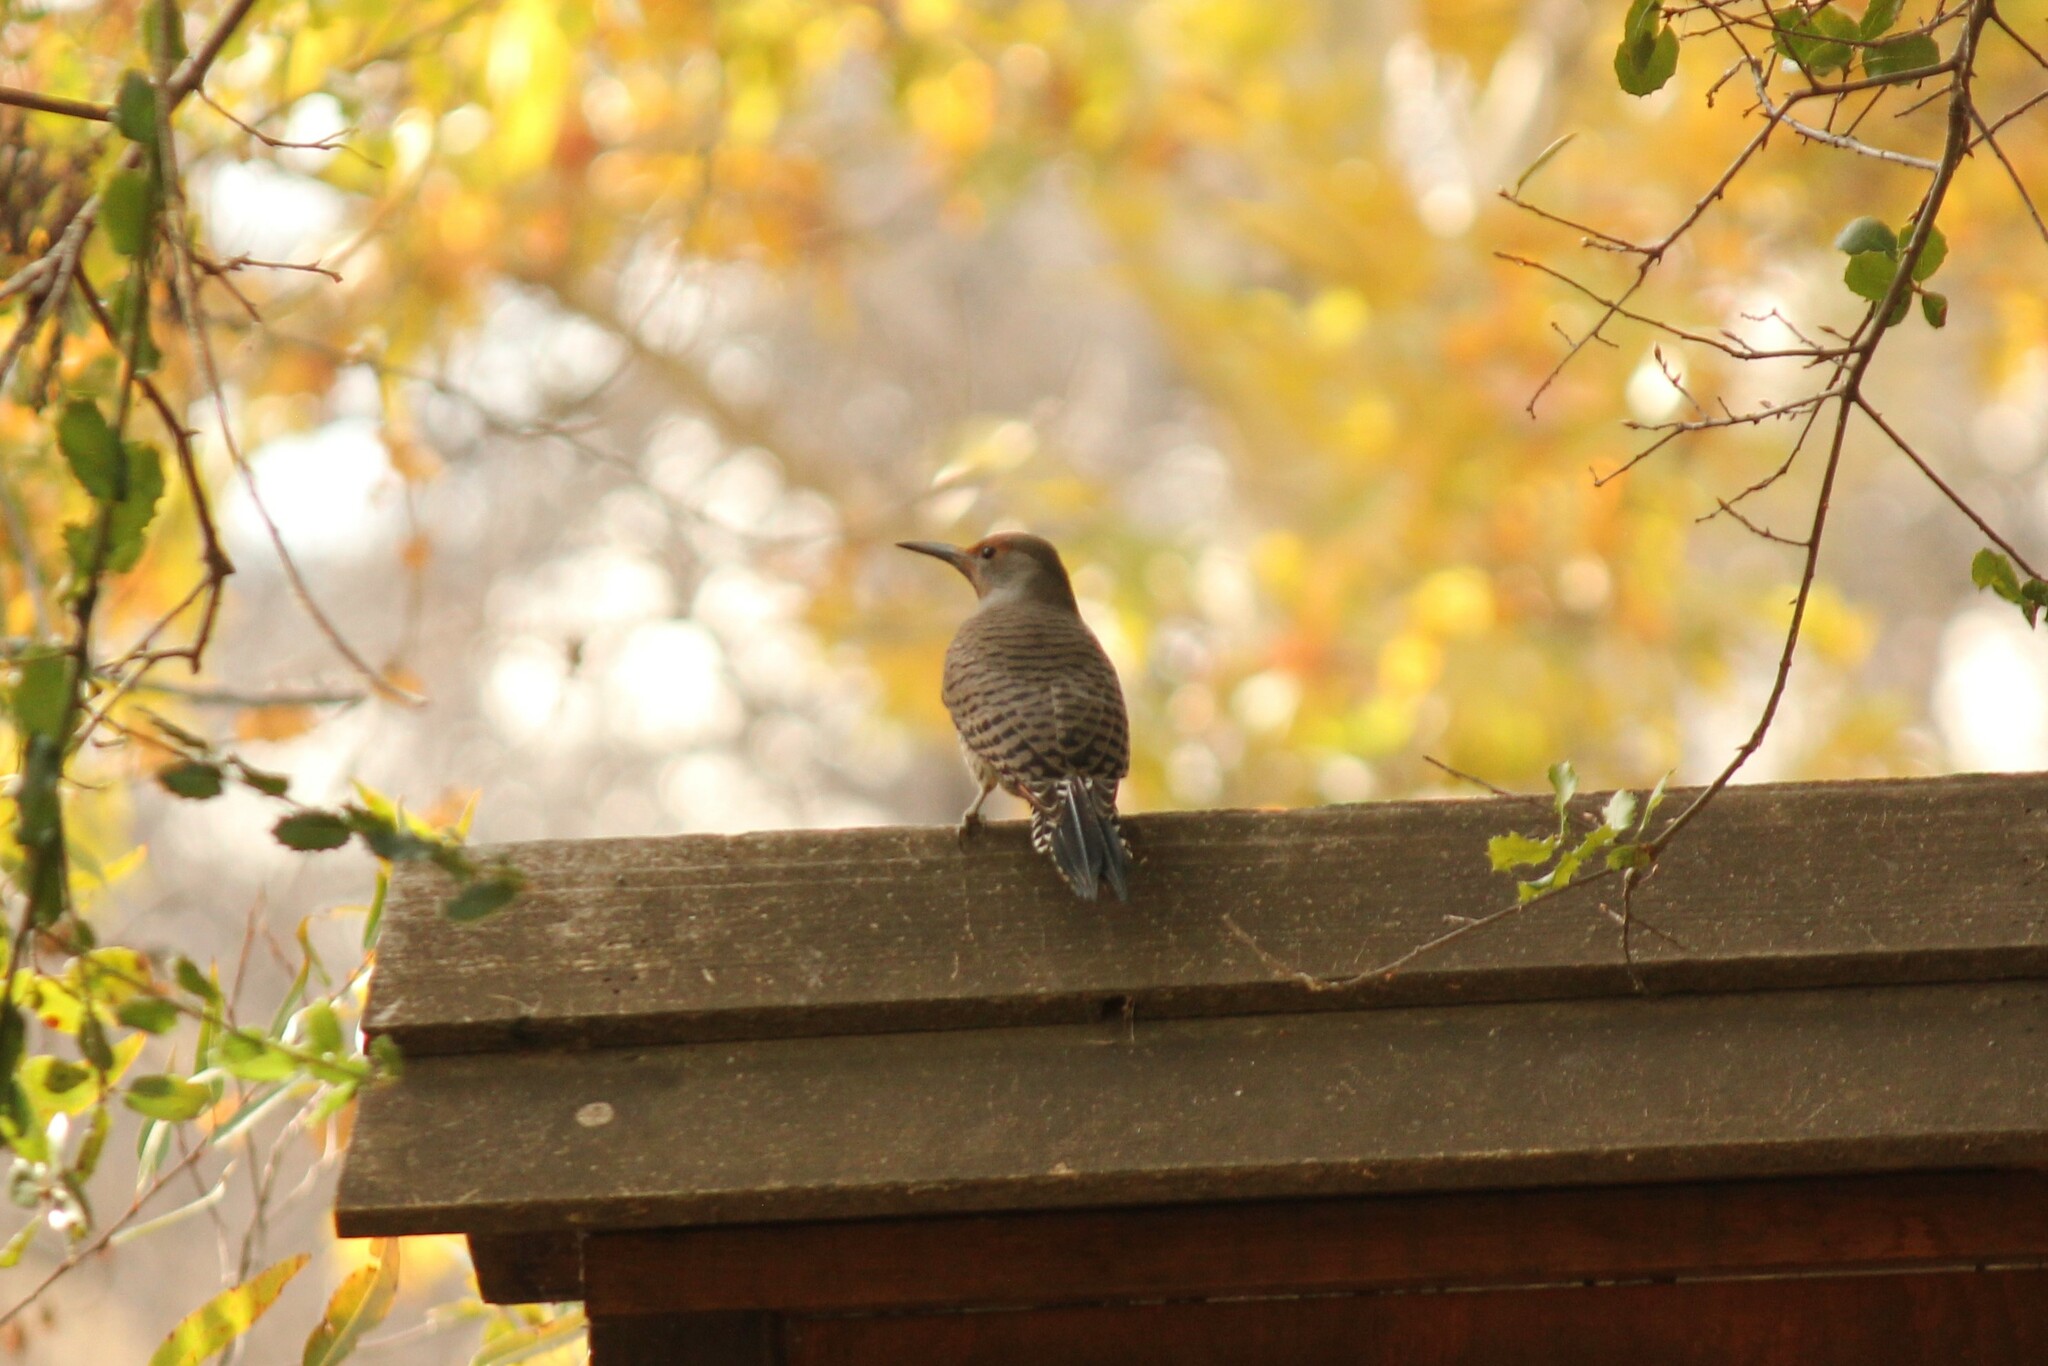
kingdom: Animalia
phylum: Chordata
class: Aves
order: Piciformes
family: Picidae
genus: Colaptes
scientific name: Colaptes auratus
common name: Northern flicker
